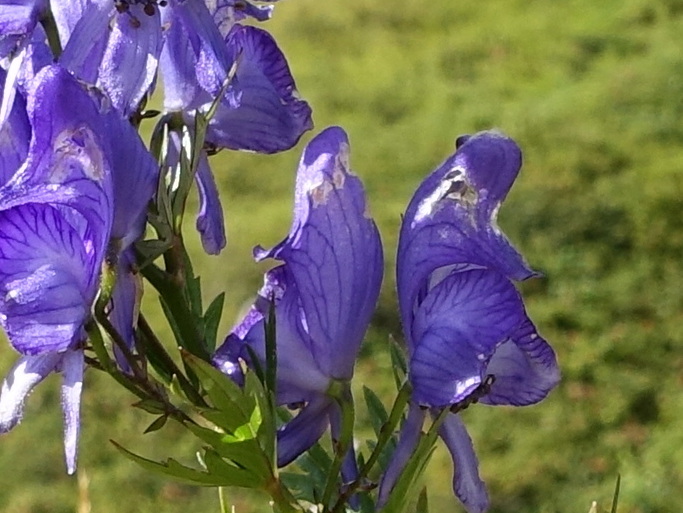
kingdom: Plantae
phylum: Tracheophyta
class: Magnoliopsida
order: Ranunculales
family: Ranunculaceae
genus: Aconitum
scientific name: Aconitum variegatum
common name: Manchurian monkshood
